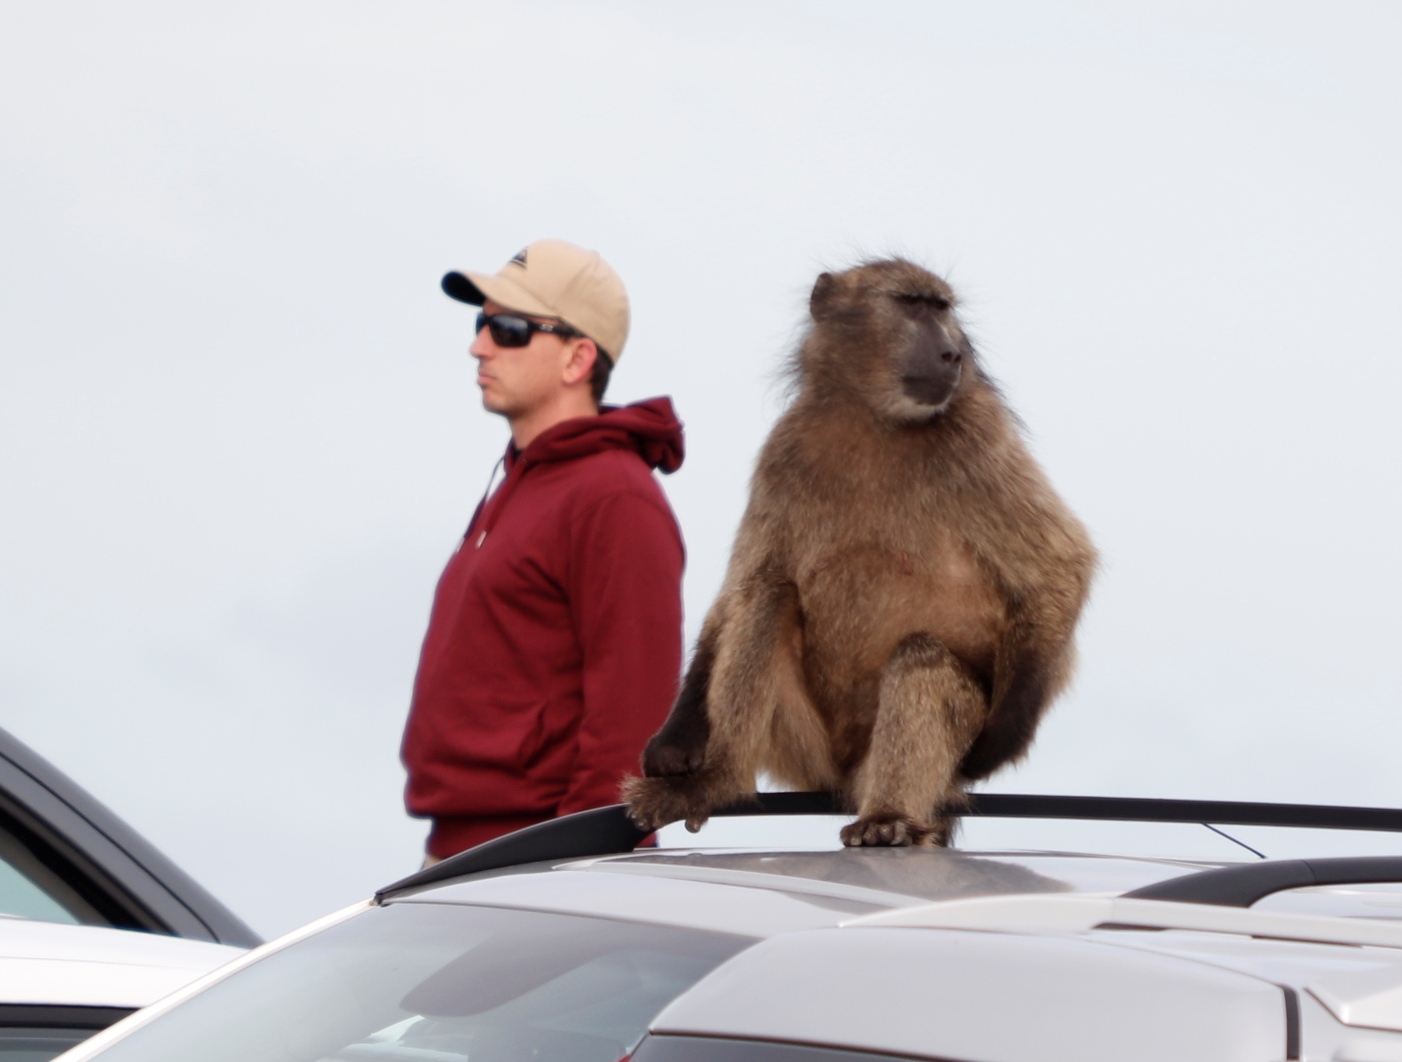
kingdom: Animalia
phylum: Chordata
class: Mammalia
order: Primates
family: Cercopithecidae
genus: Papio
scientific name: Papio ursinus
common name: Chacma baboon
